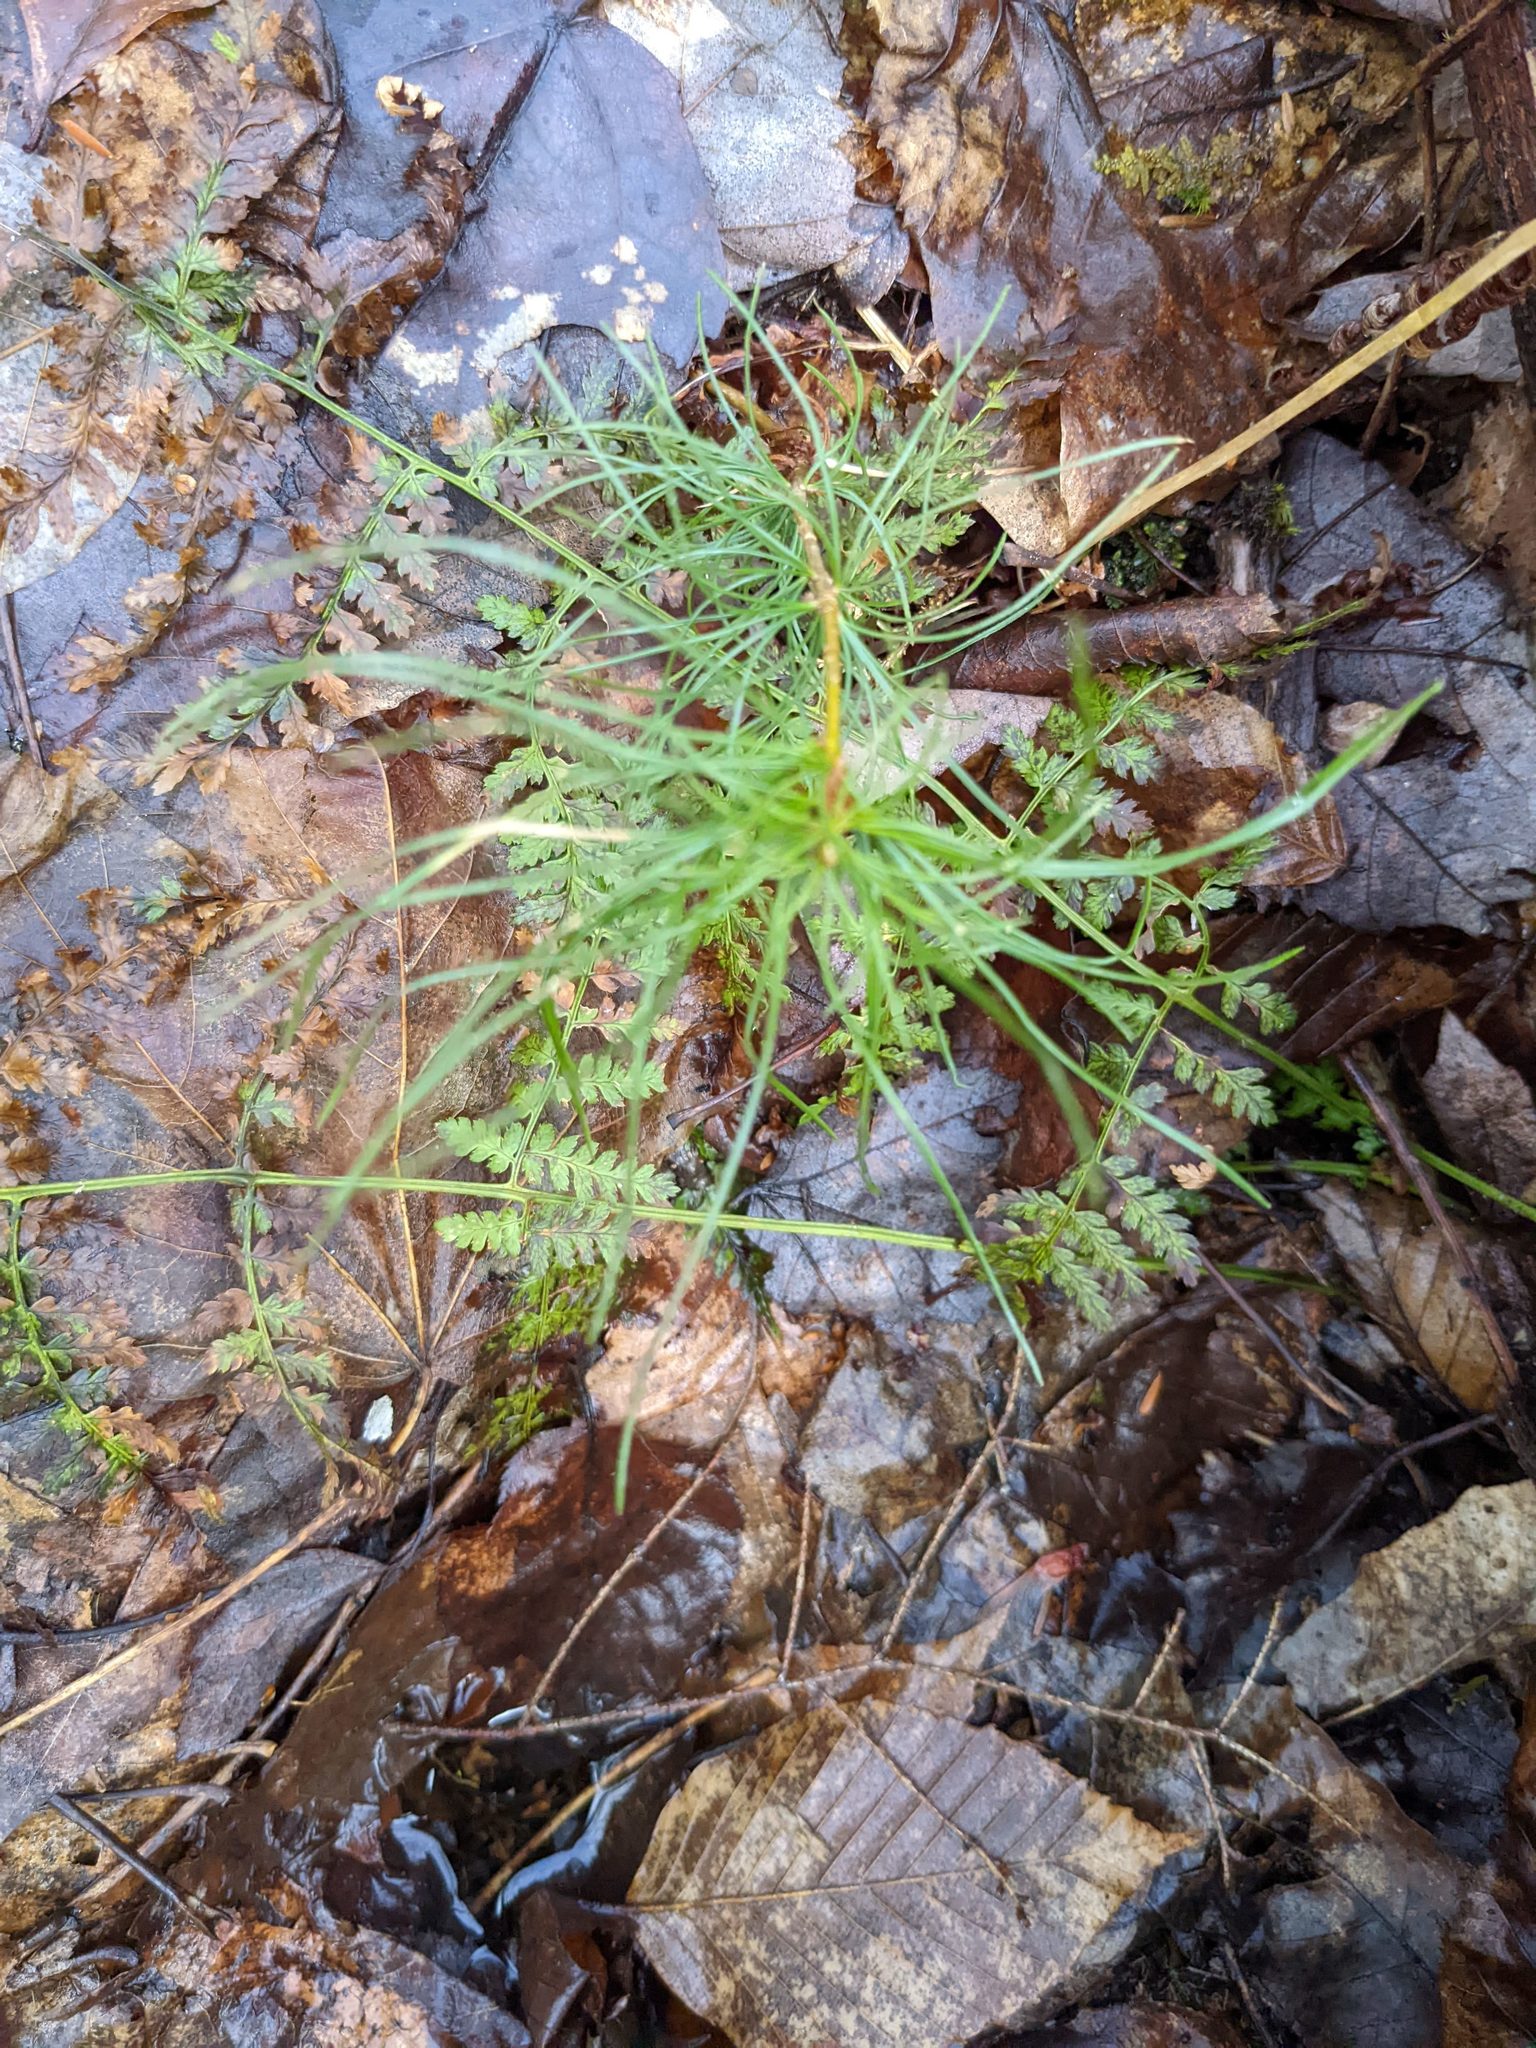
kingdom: Plantae
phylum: Tracheophyta
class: Pinopsida
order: Pinales
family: Pinaceae
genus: Pinus
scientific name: Pinus strobus
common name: Weymouth pine
